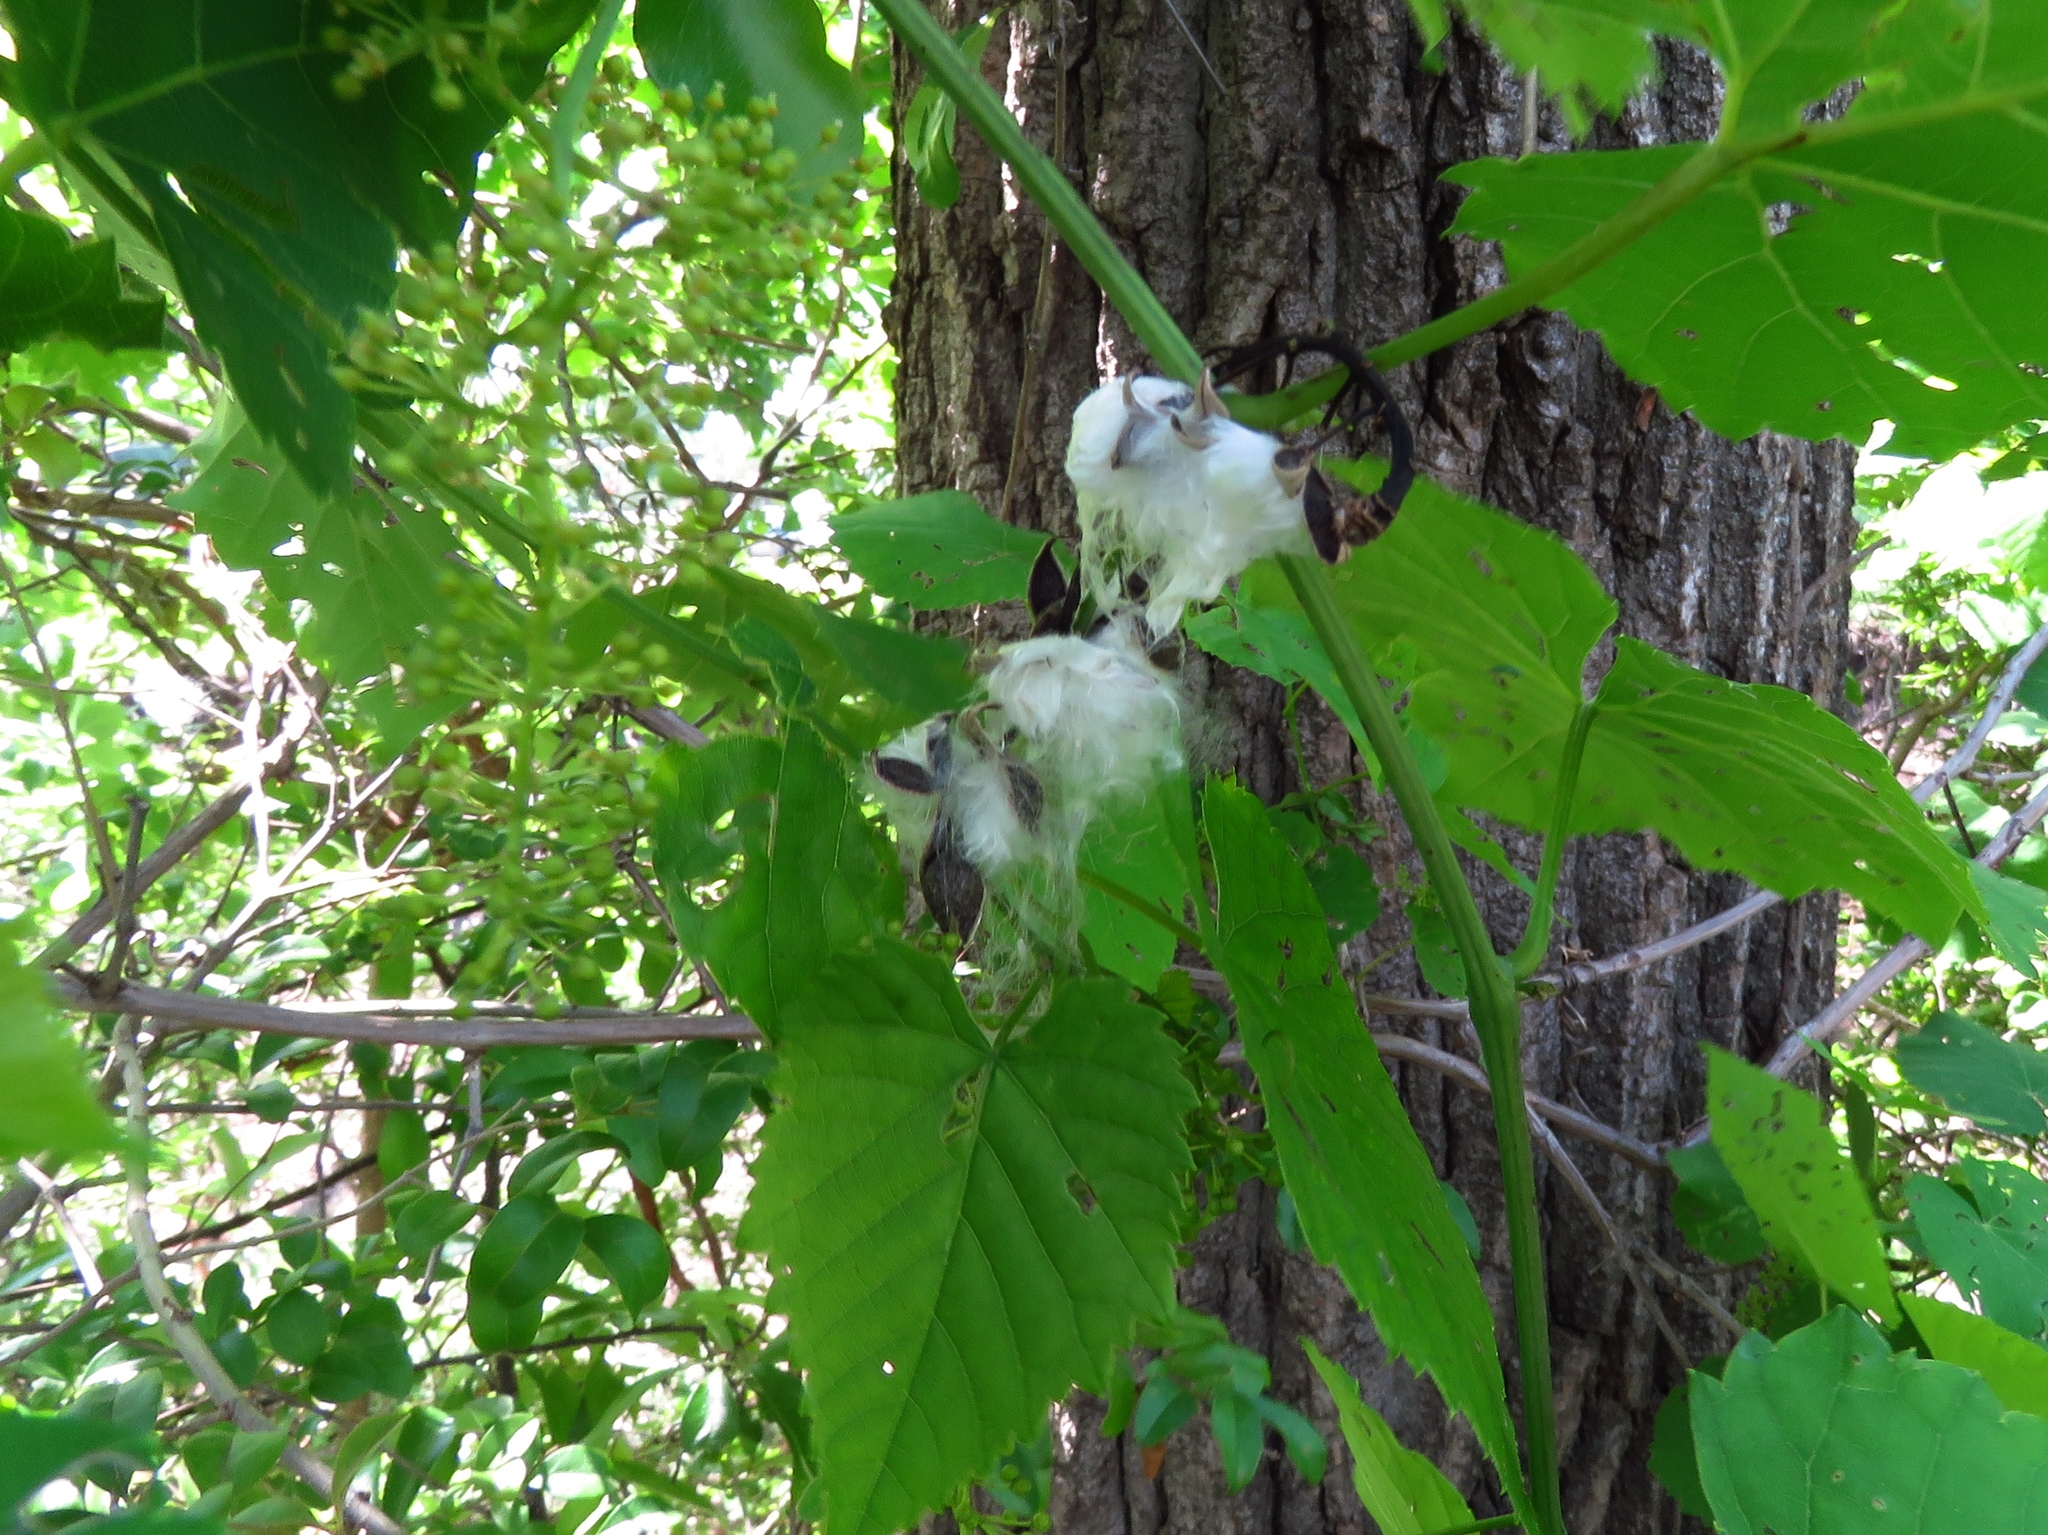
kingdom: Plantae
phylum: Tracheophyta
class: Magnoliopsida
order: Malpighiales
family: Salicaceae
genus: Populus
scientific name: Populus deltoides
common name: Eastern cottonwood
